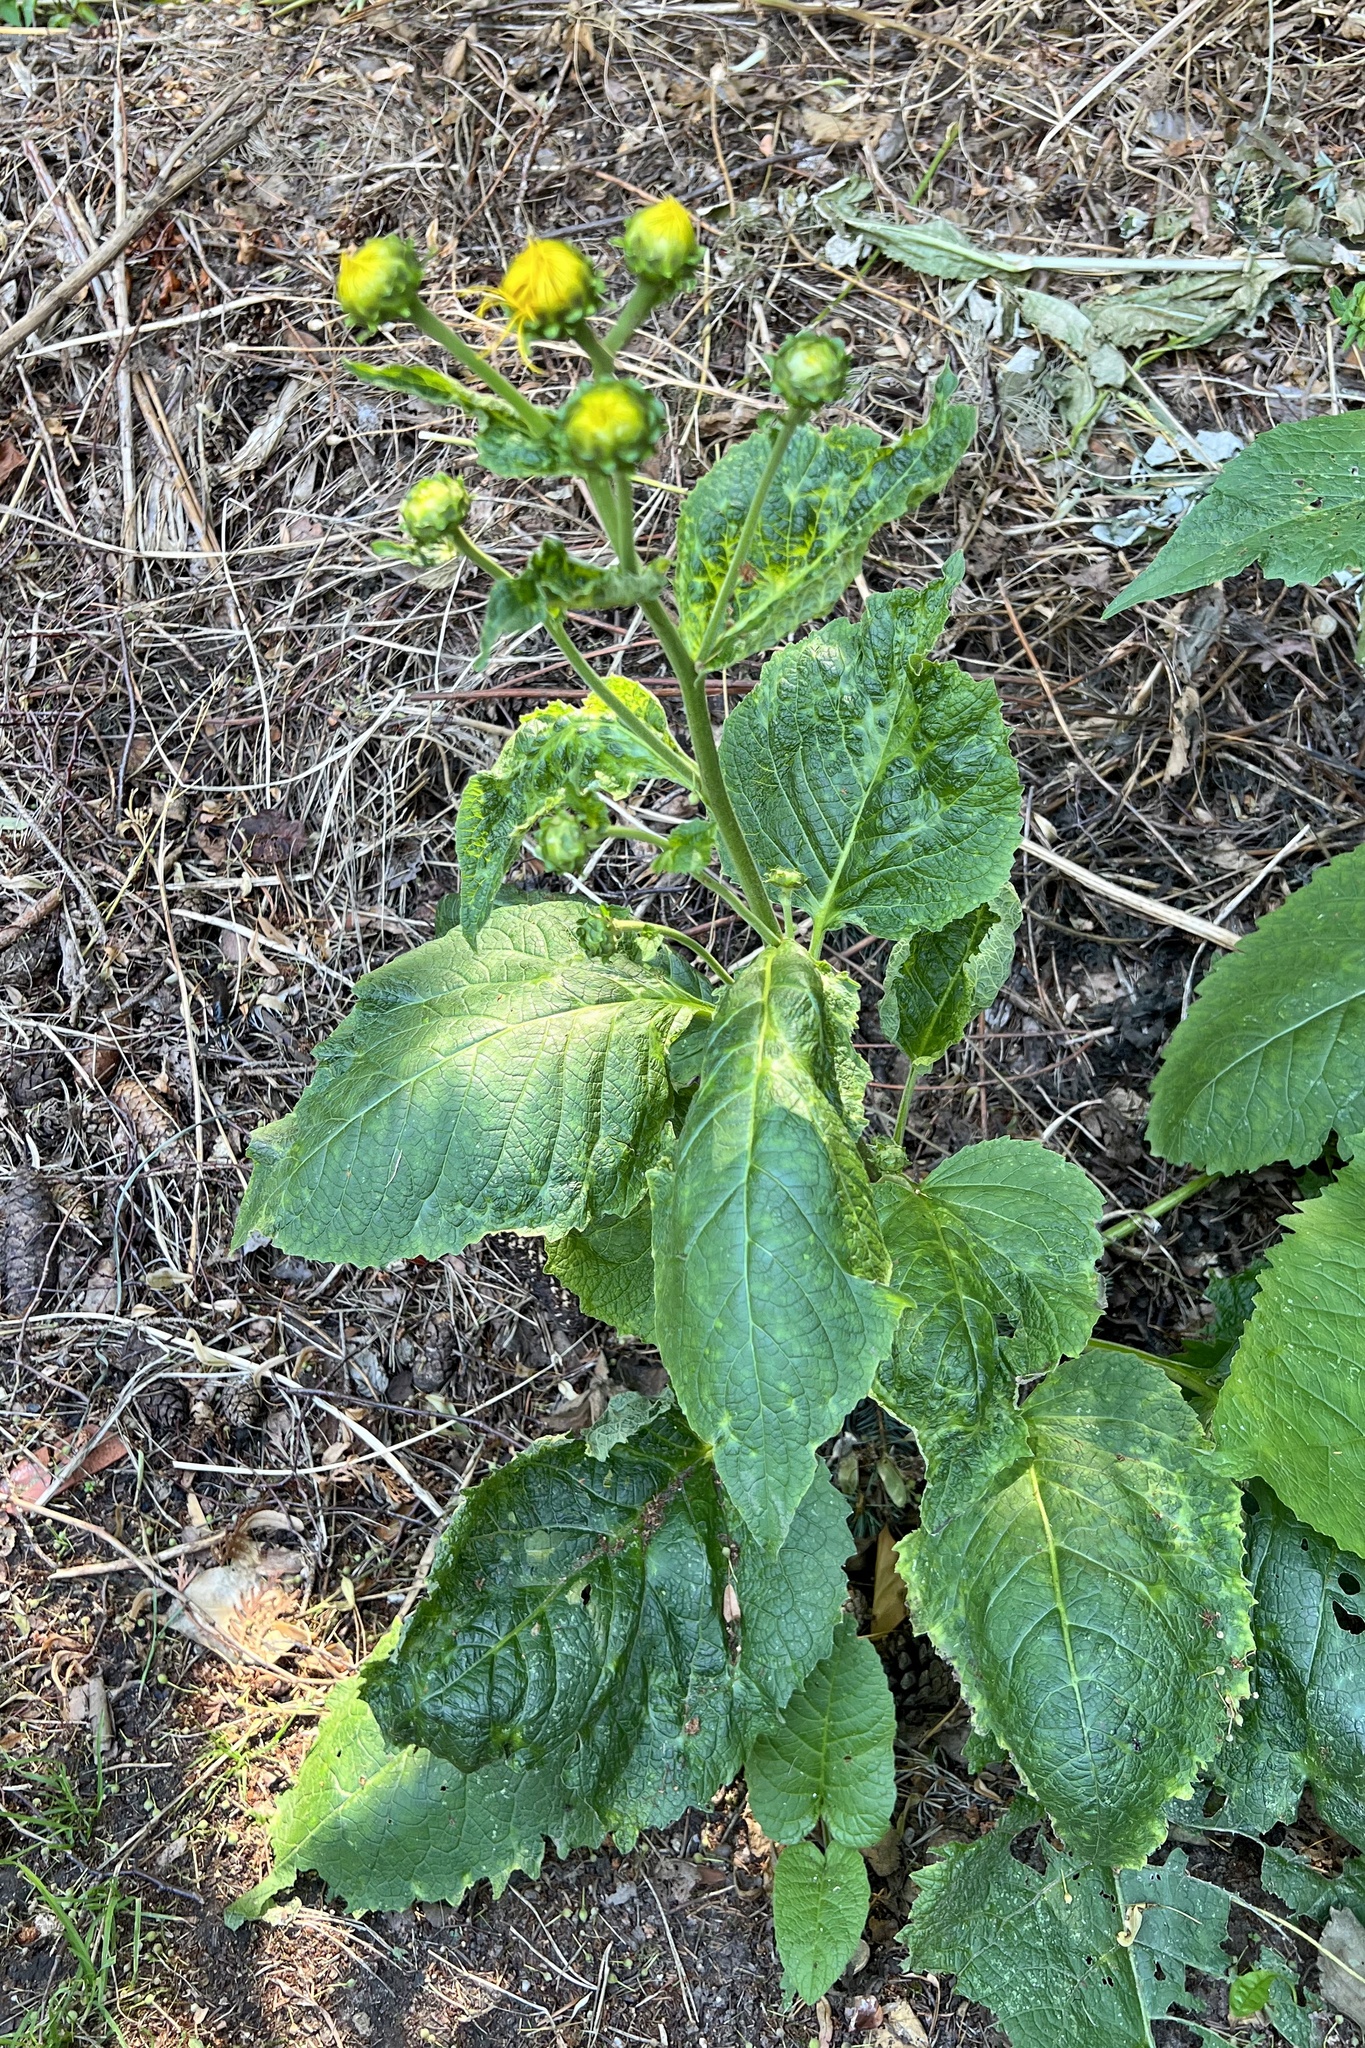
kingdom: Plantae
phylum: Tracheophyta
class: Magnoliopsida
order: Asterales
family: Asteraceae
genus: Telekia
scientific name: Telekia speciosa
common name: Yellow oxeye
